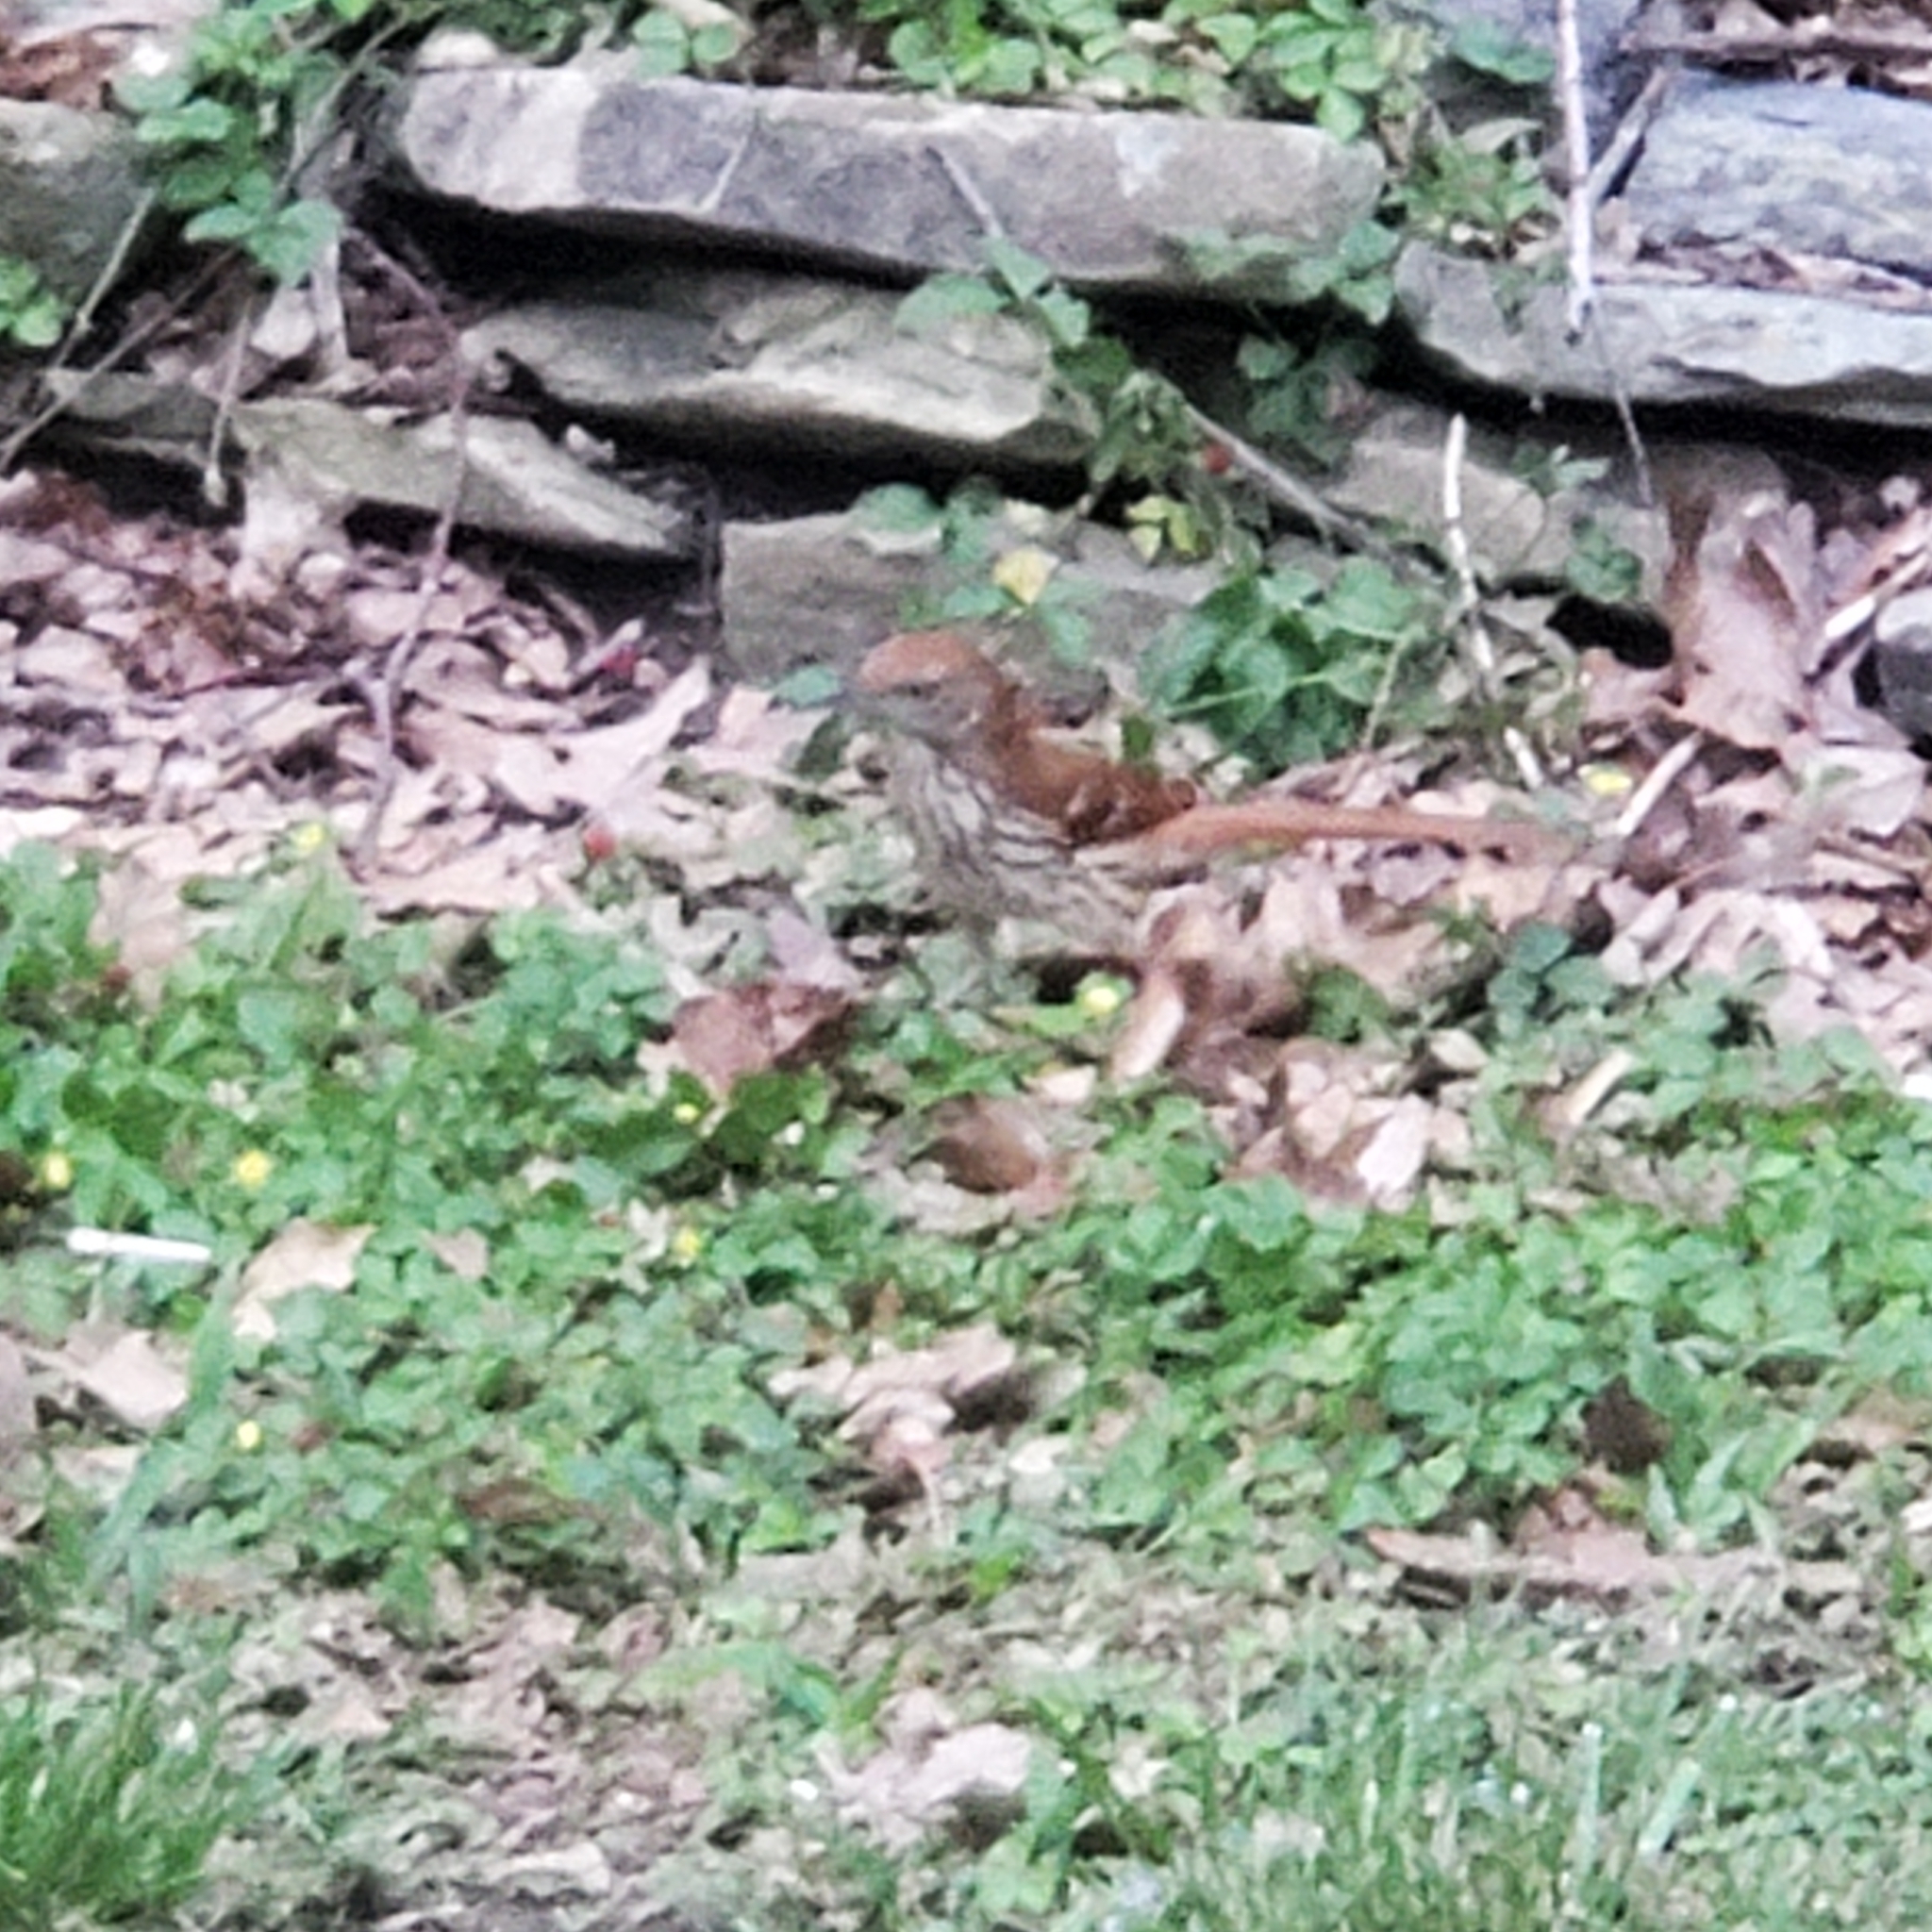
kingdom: Animalia
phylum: Chordata
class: Aves
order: Passeriformes
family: Mimidae
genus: Toxostoma
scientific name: Toxostoma rufum
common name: Brown thrasher
